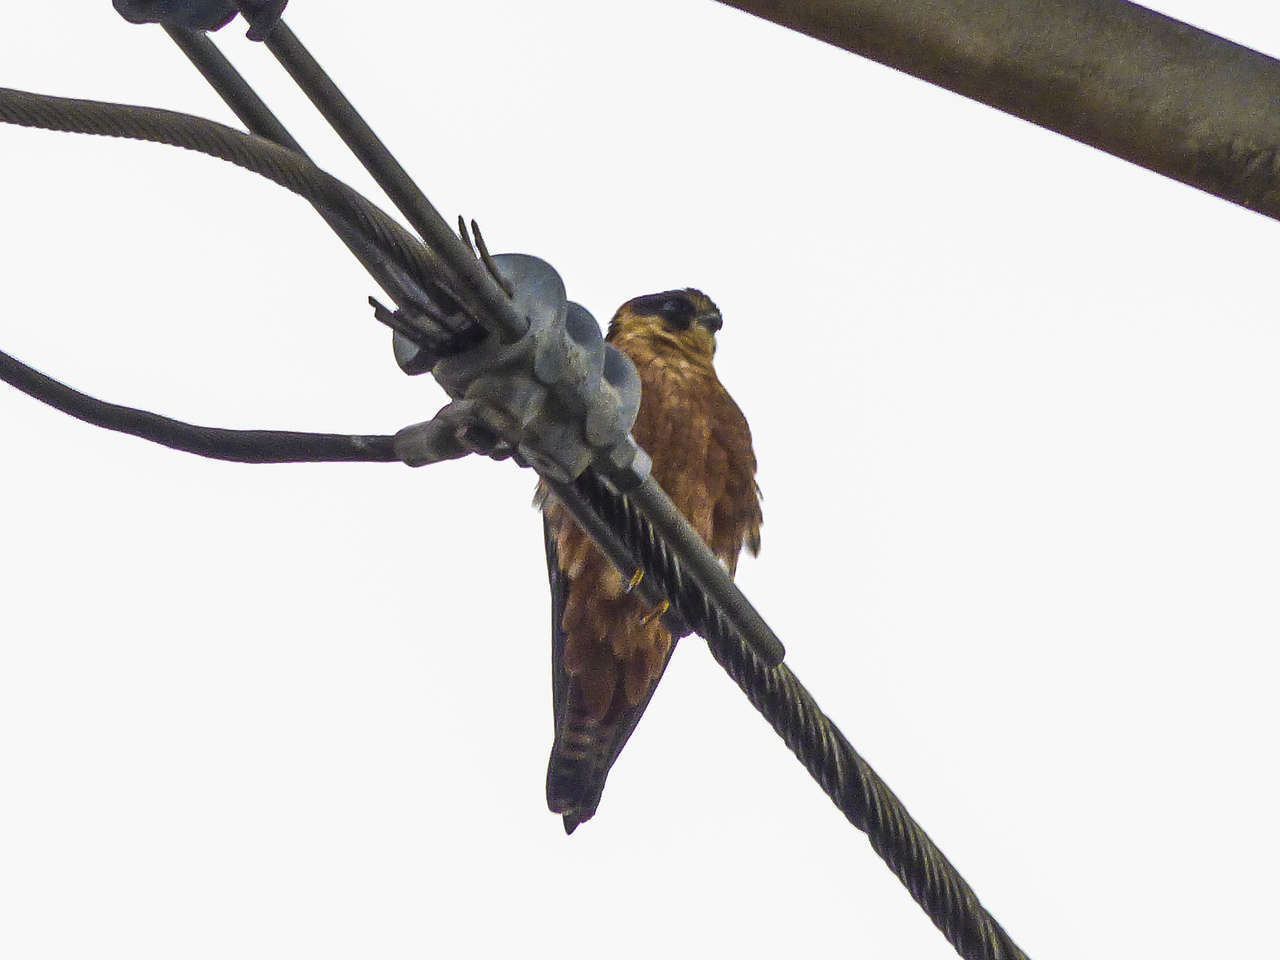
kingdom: Animalia
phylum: Chordata
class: Aves
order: Falconiformes
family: Falconidae
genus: Falco
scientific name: Falco longipennis
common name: Australian hobby
